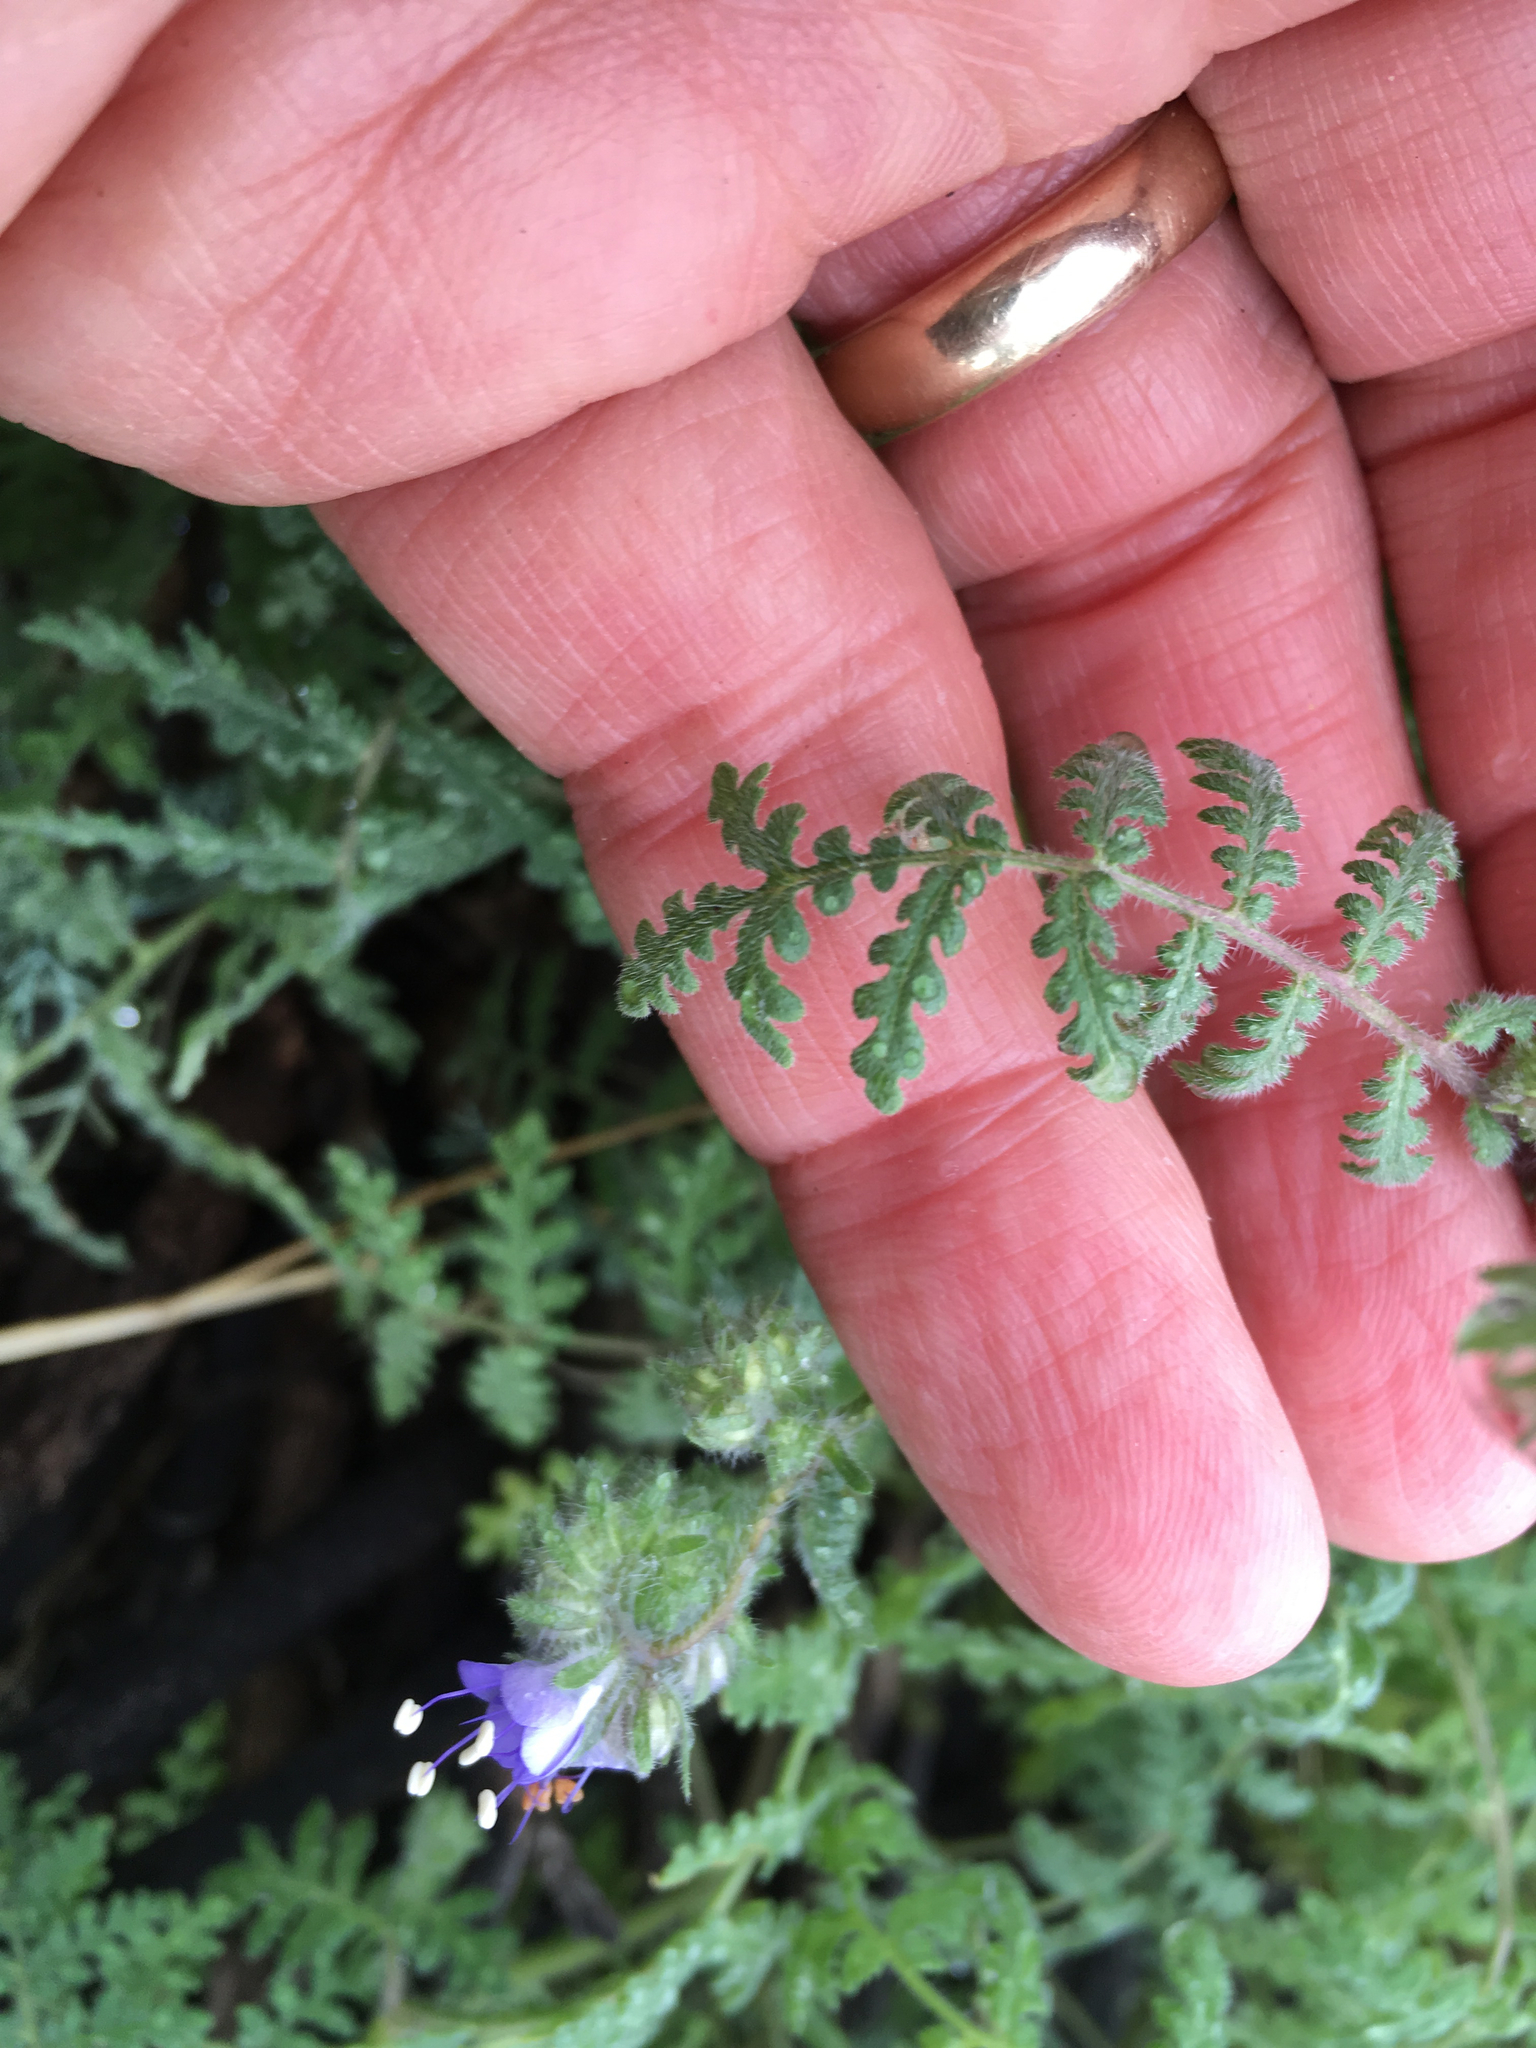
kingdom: Plantae
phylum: Tracheophyta
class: Magnoliopsida
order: Boraginales
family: Hydrophyllaceae
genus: Phacelia
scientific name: Phacelia distans
